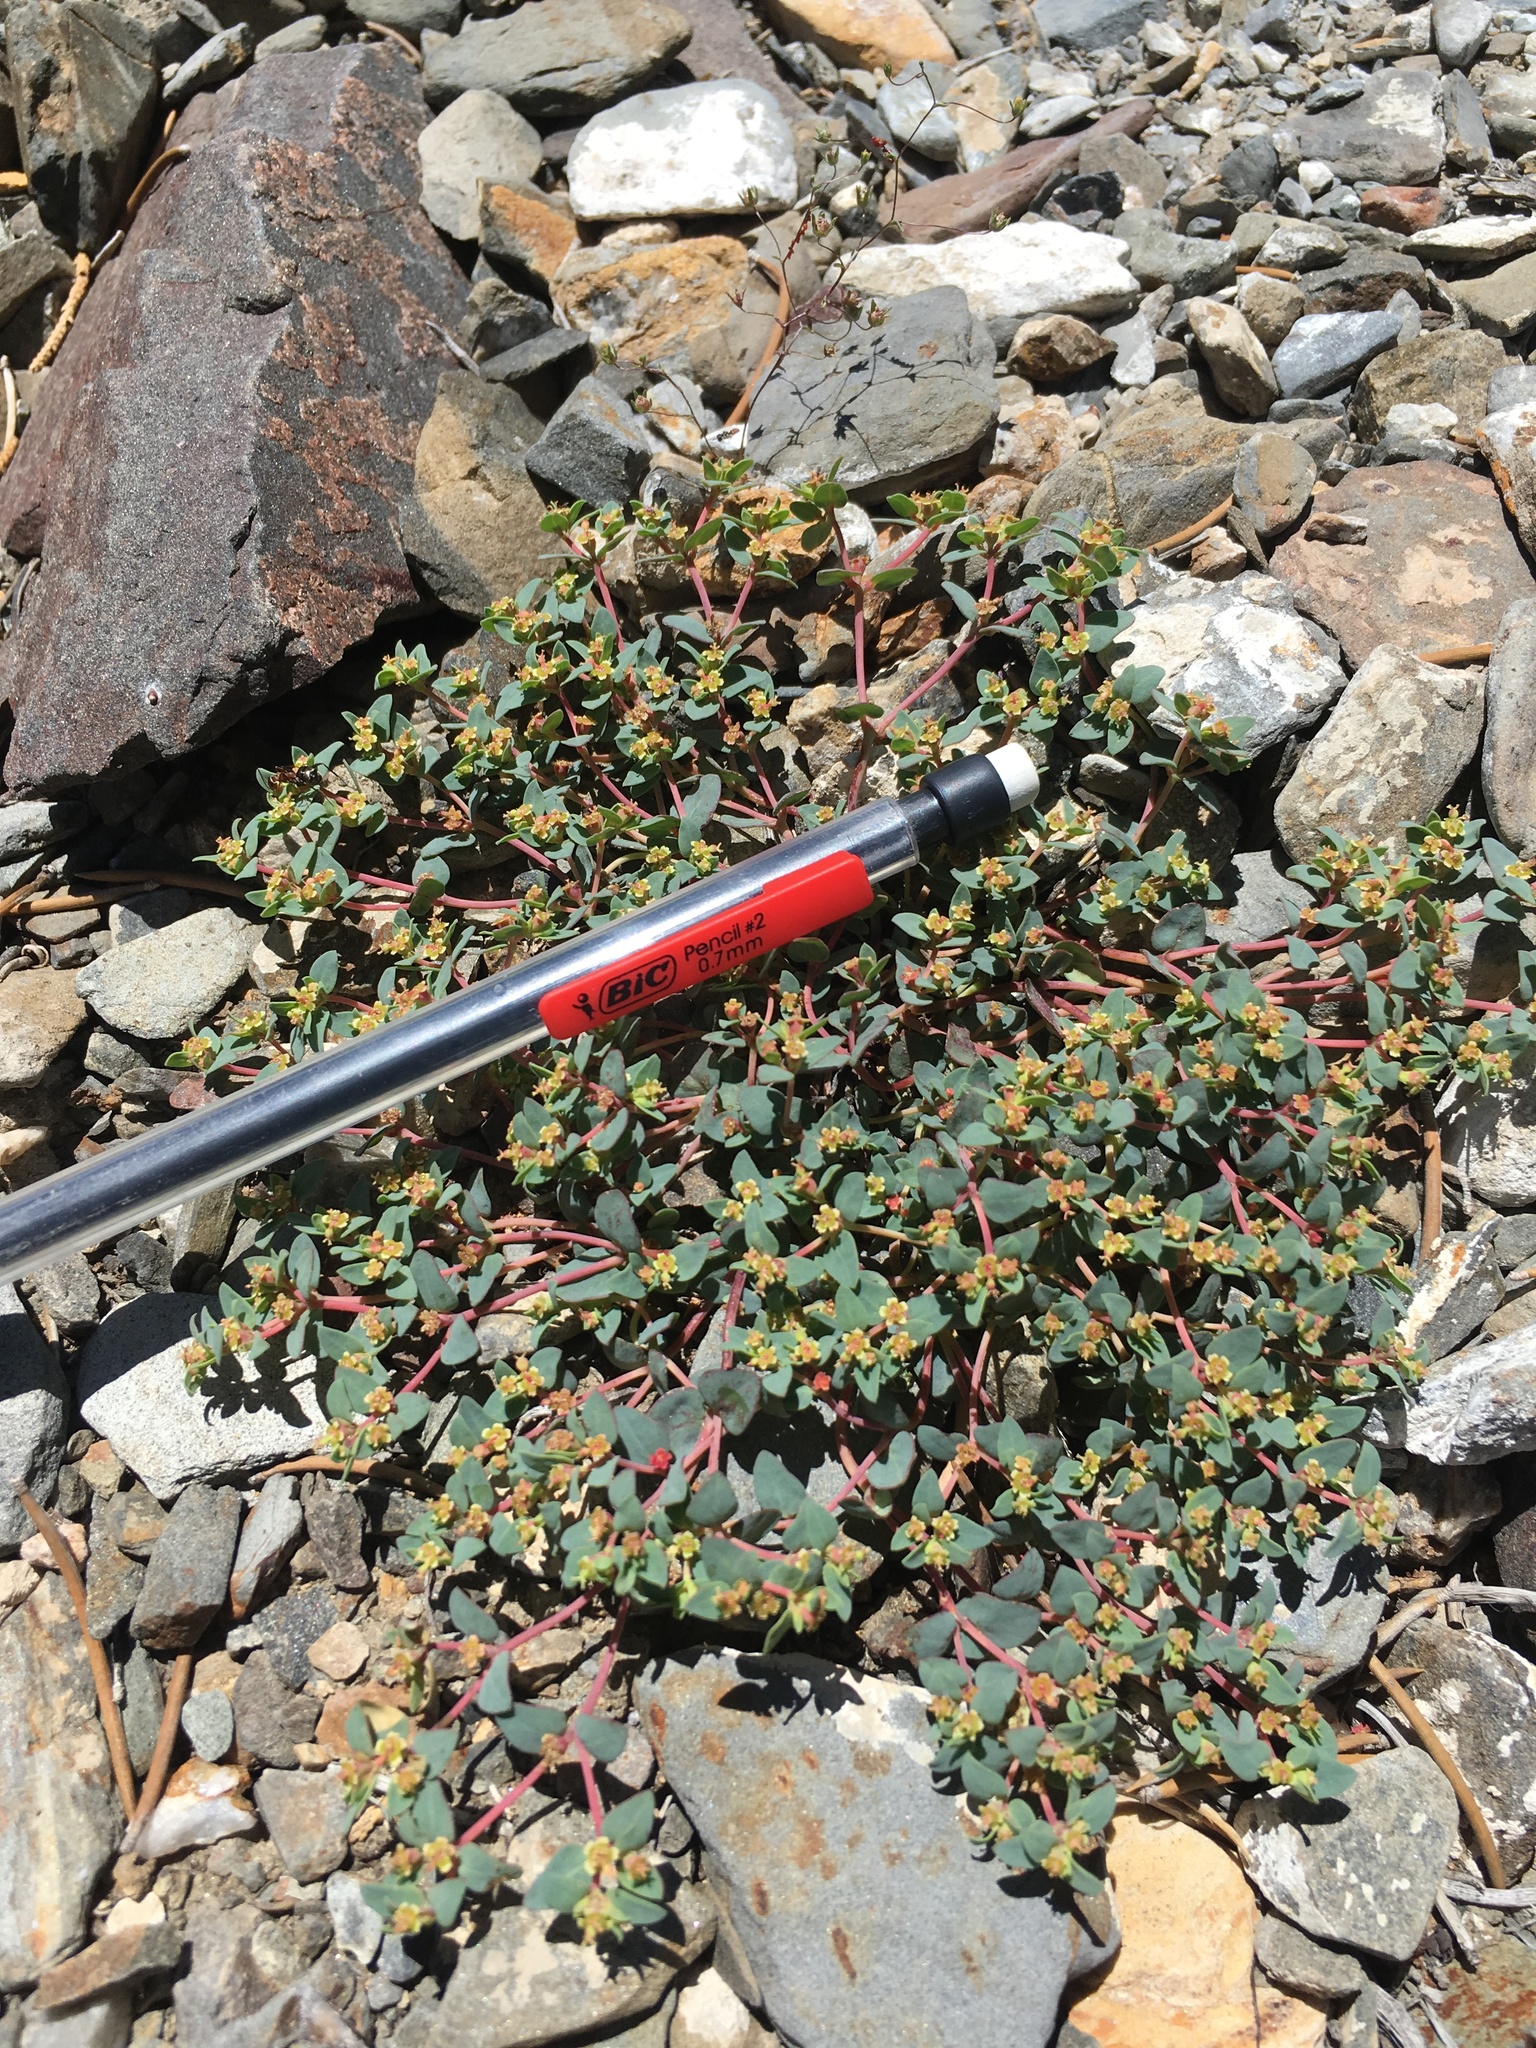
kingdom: Plantae
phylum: Tracheophyta
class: Magnoliopsida
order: Malpighiales
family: Euphorbiaceae
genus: Euphorbia
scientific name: Euphorbia fendleri
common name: Fendler's euphorbia
